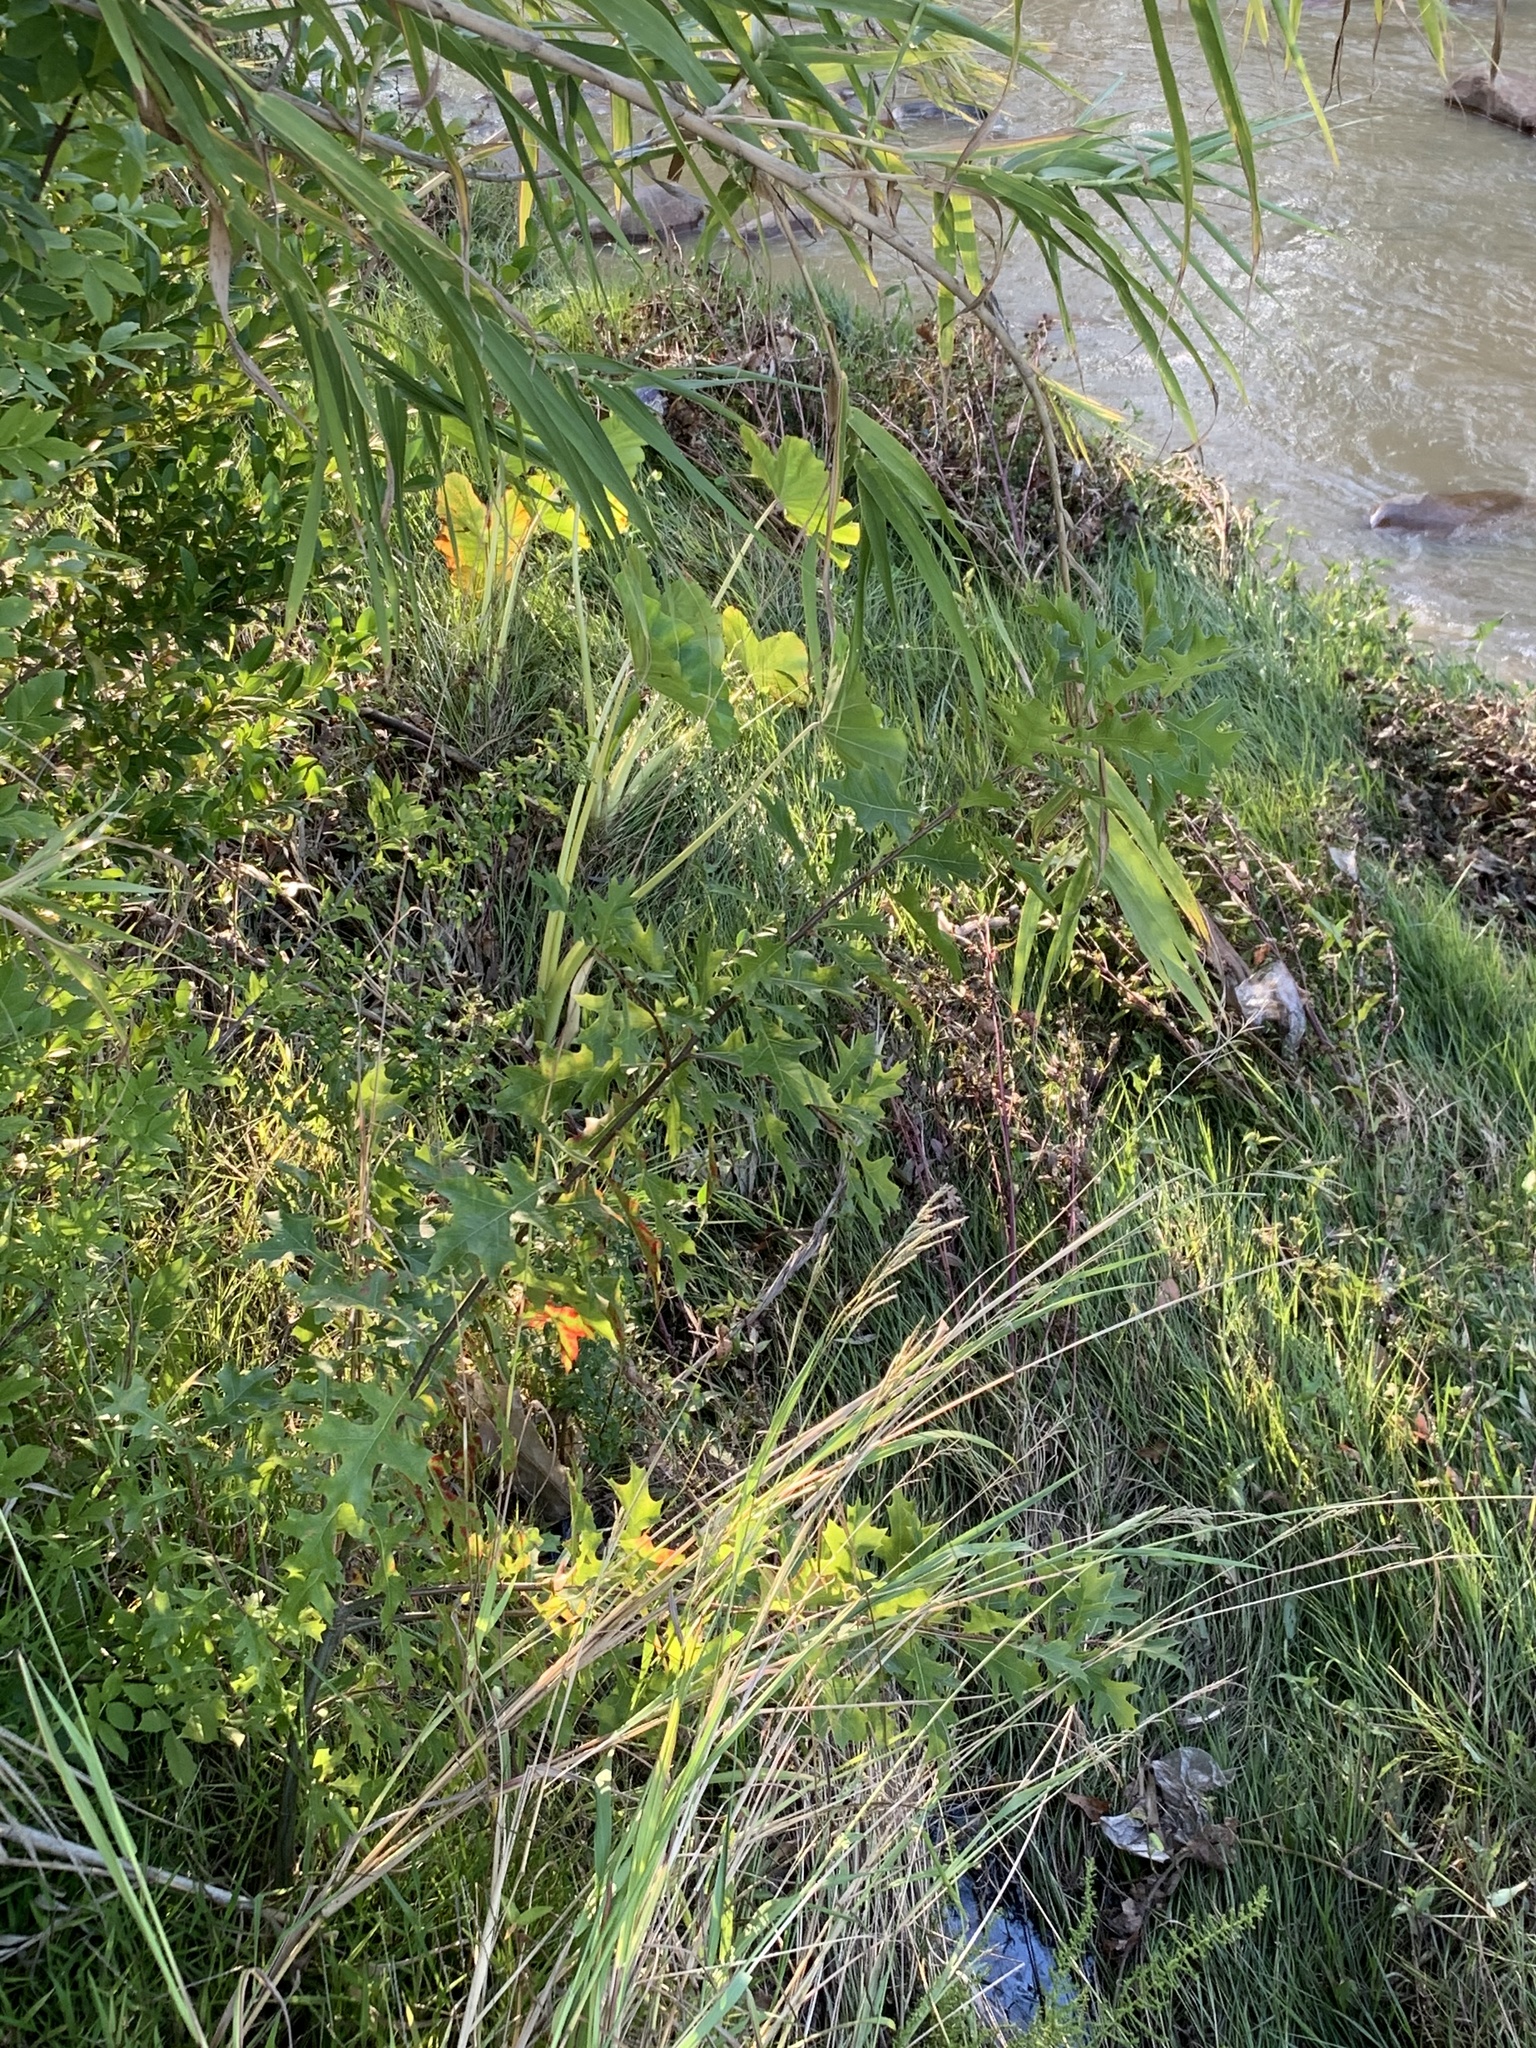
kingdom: Plantae
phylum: Tracheophyta
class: Magnoliopsida
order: Fagales
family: Fagaceae
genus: Quercus
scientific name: Quercus palustris
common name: Pin oak
